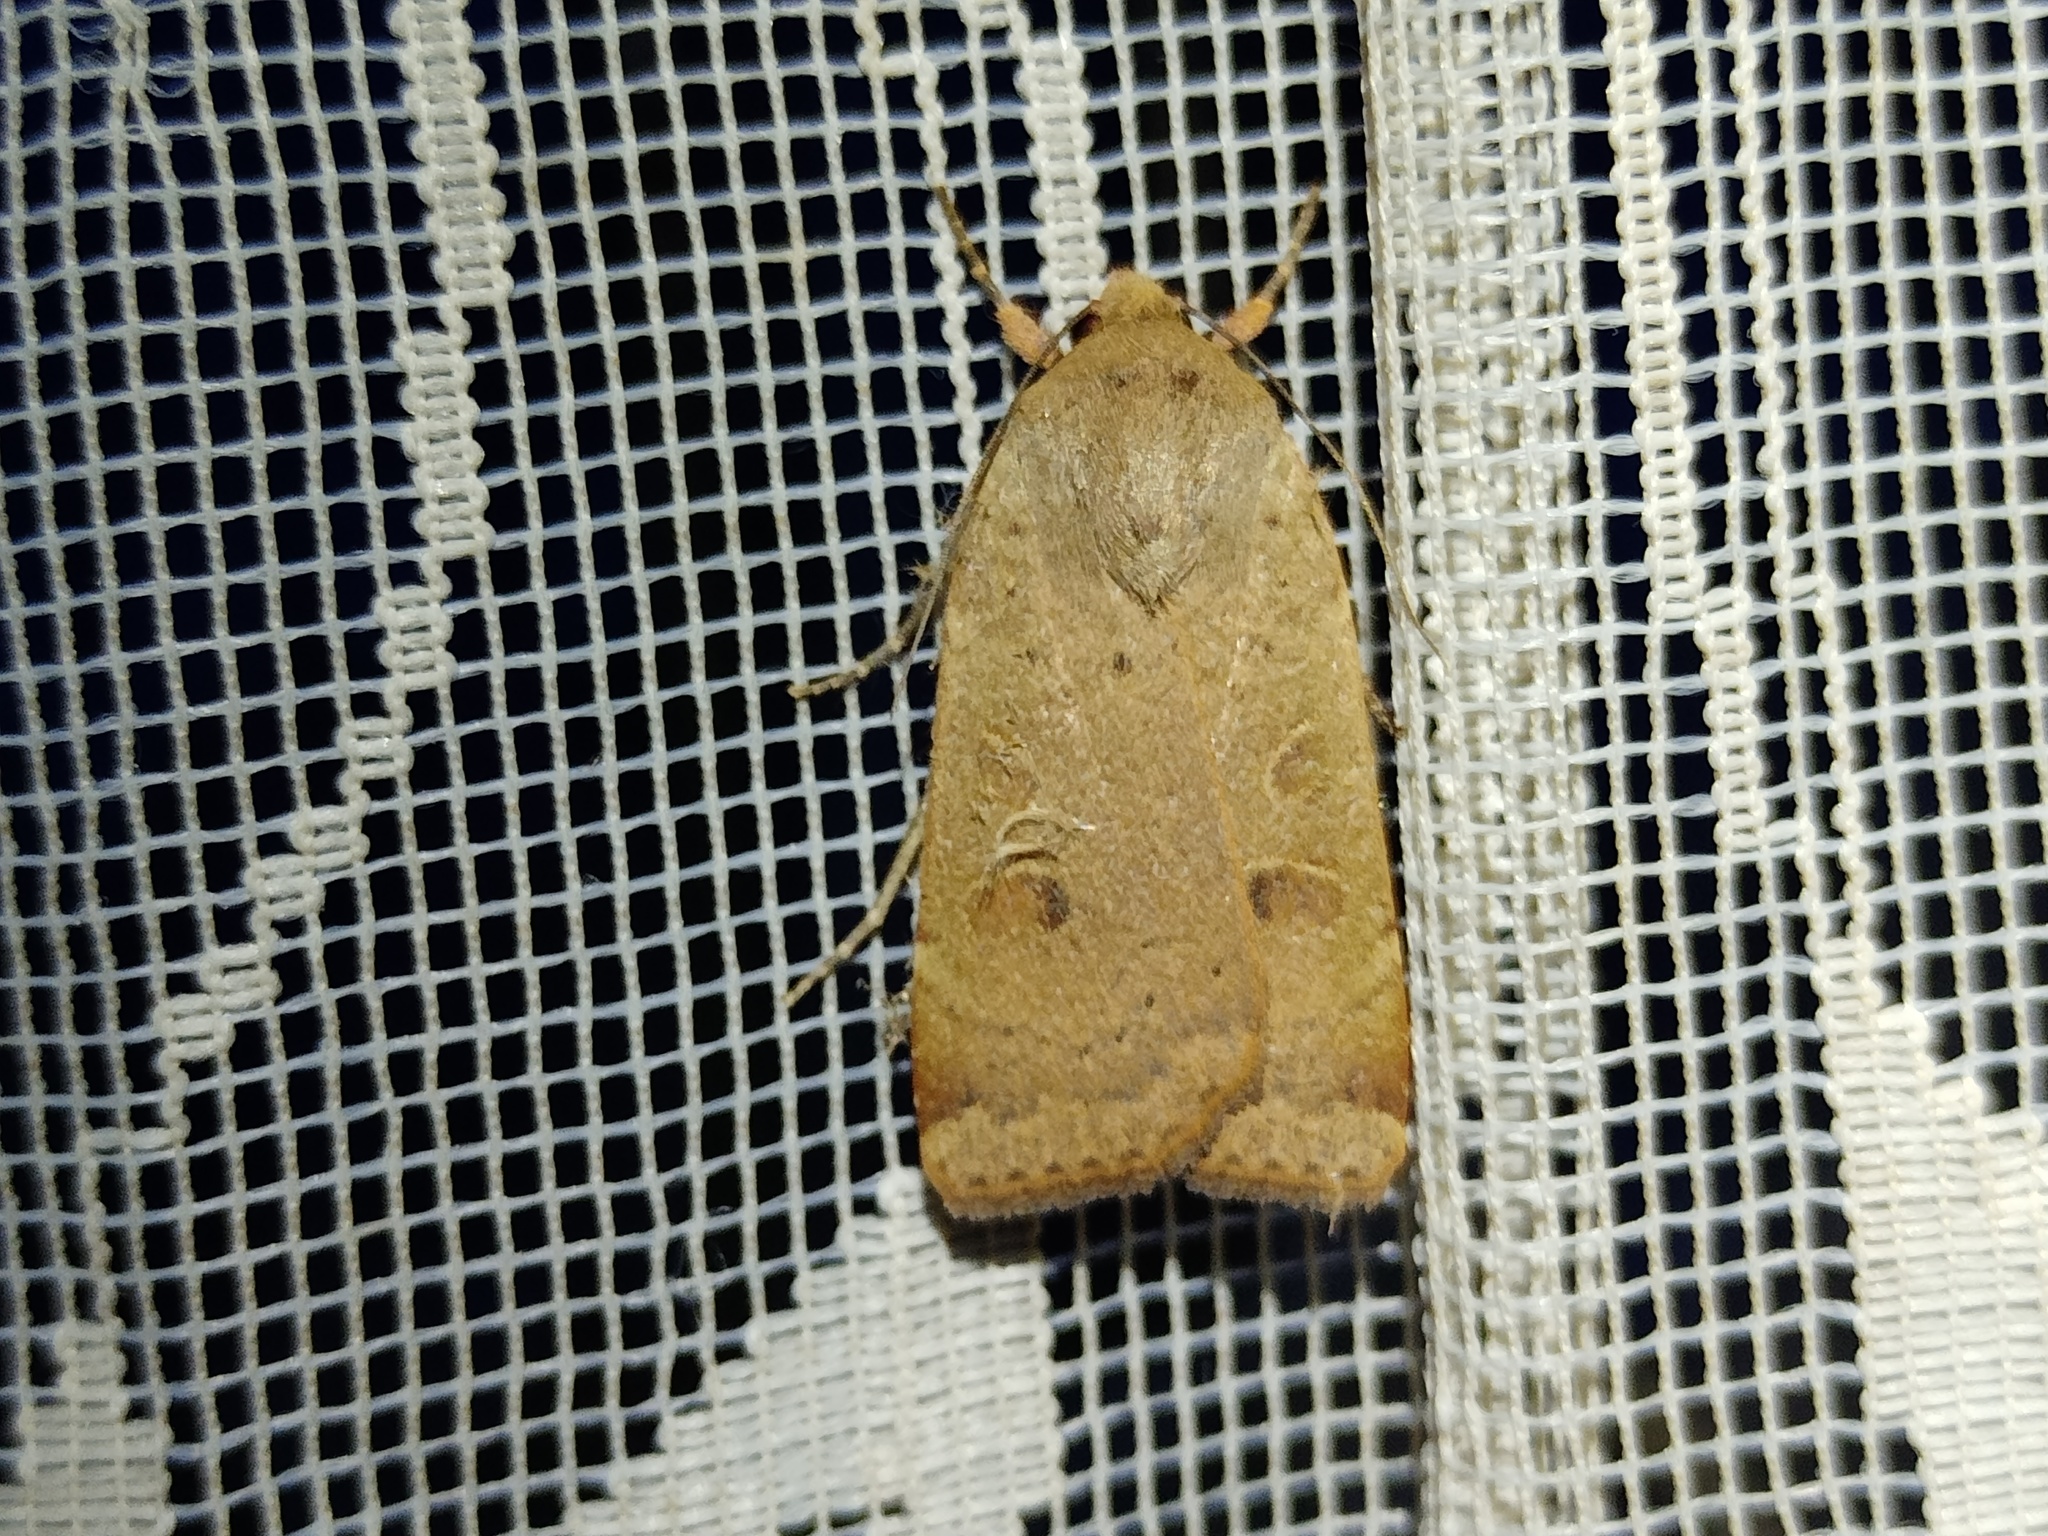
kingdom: Animalia
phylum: Arthropoda
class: Insecta
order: Lepidoptera
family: Noctuidae
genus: Noctua
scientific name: Noctua comes
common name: Lesser yellow underwing
